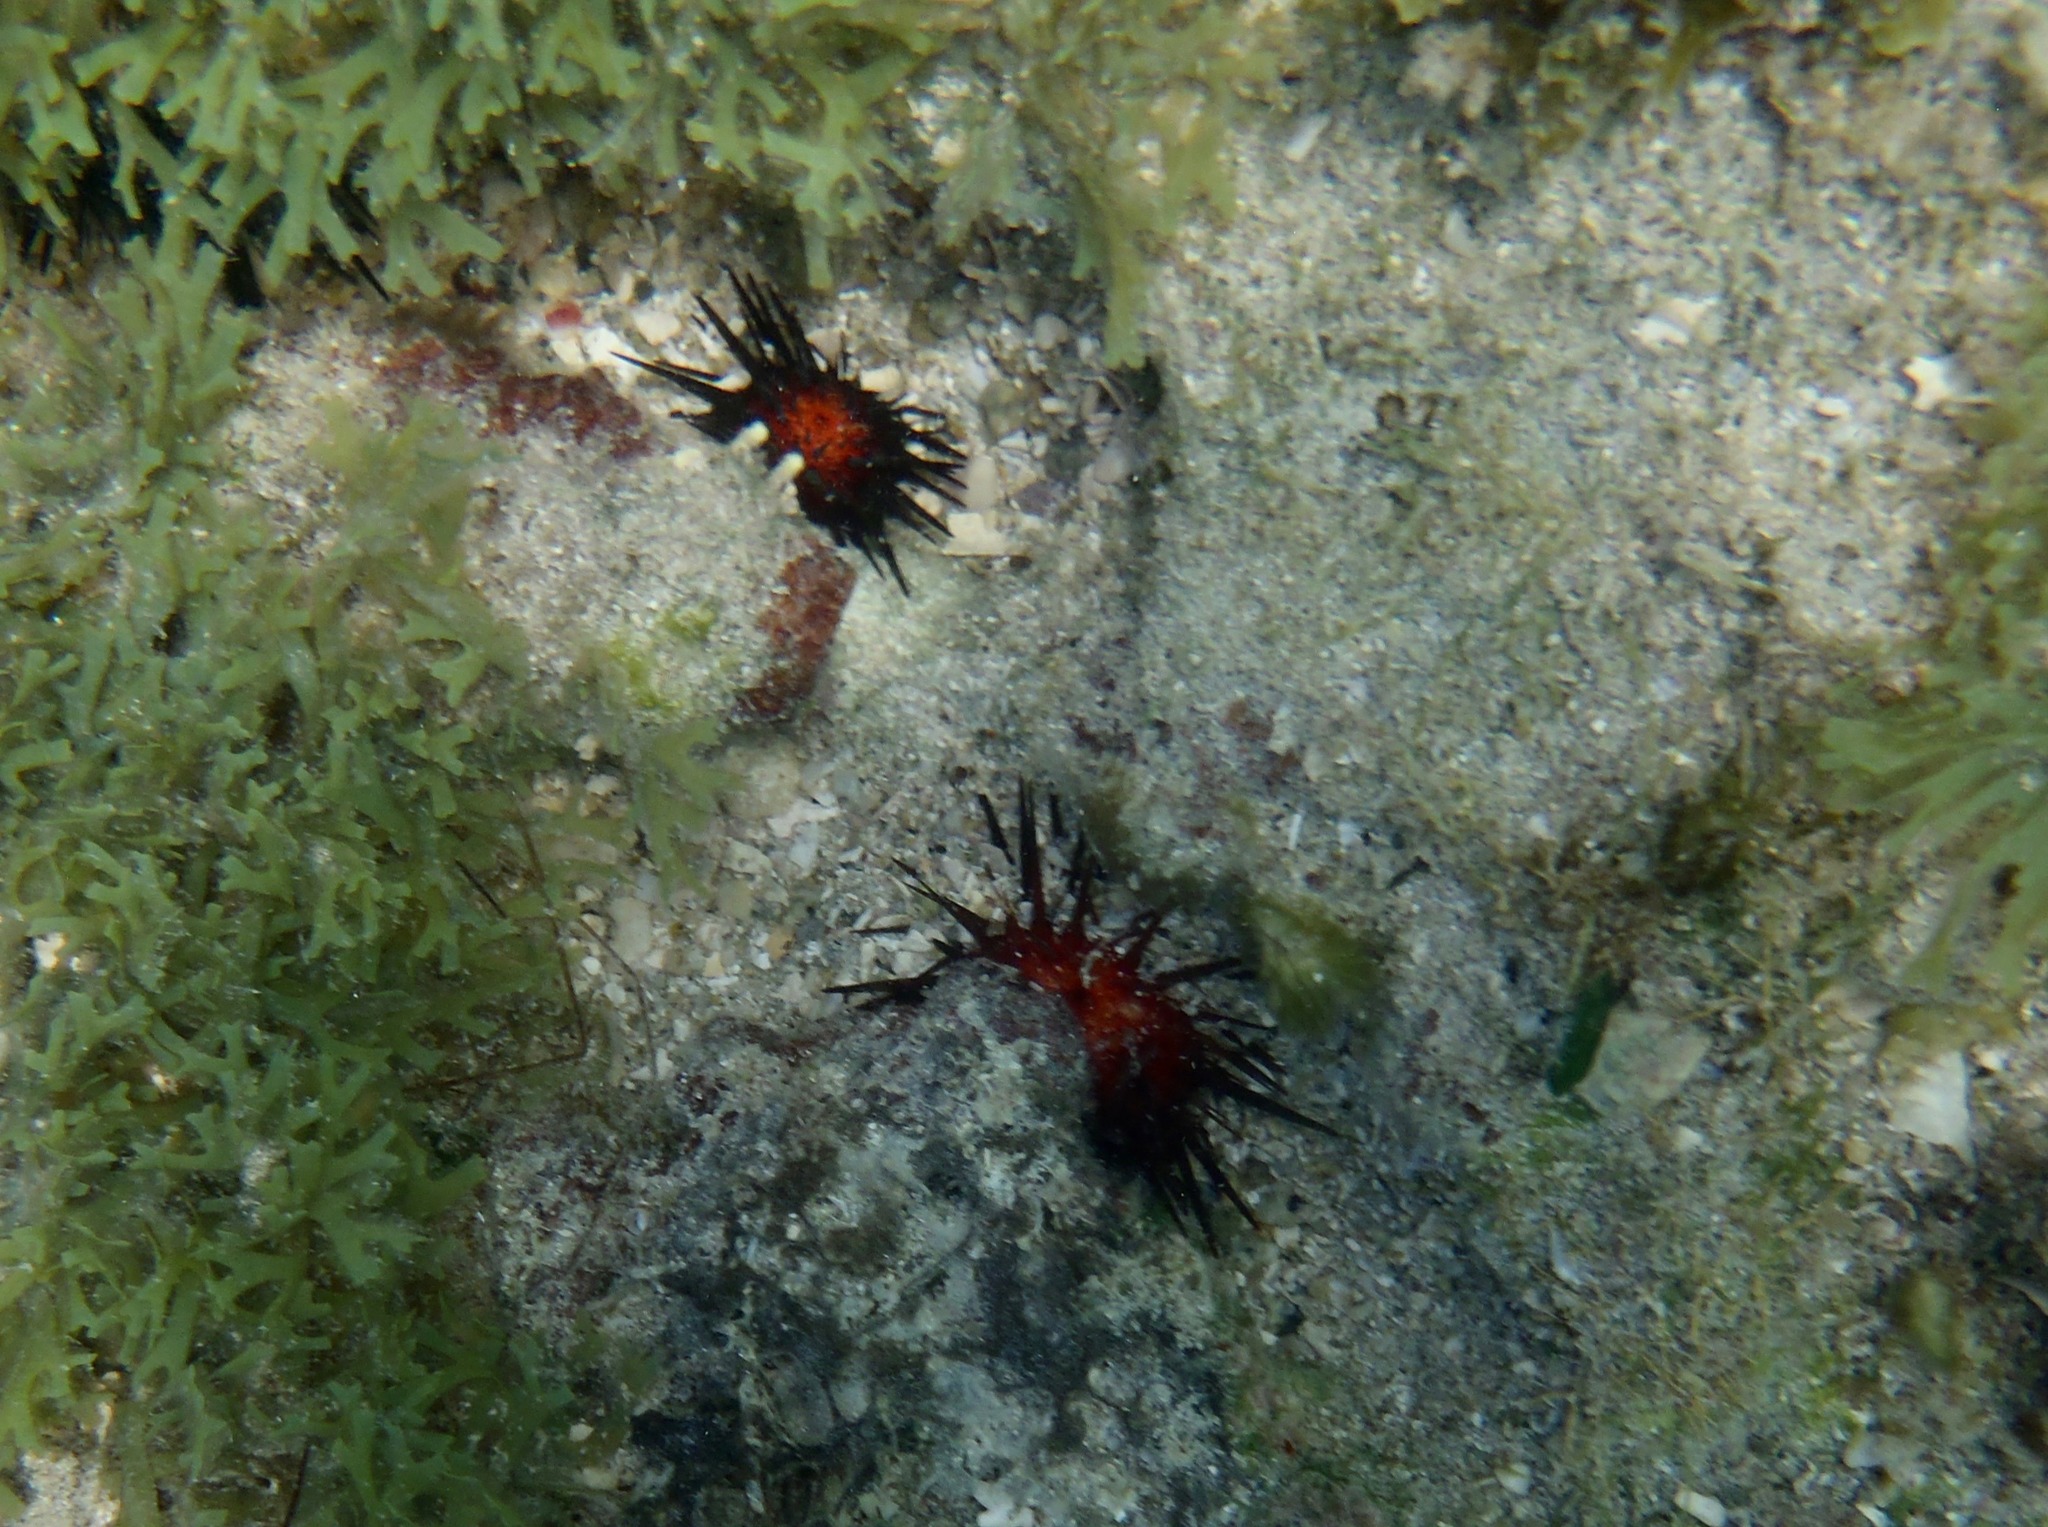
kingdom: Animalia
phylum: Echinodermata
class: Echinoidea
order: Camarodonta
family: Echinometridae
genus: Echinometra
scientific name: Echinometra lucunter
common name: Rock urchin
